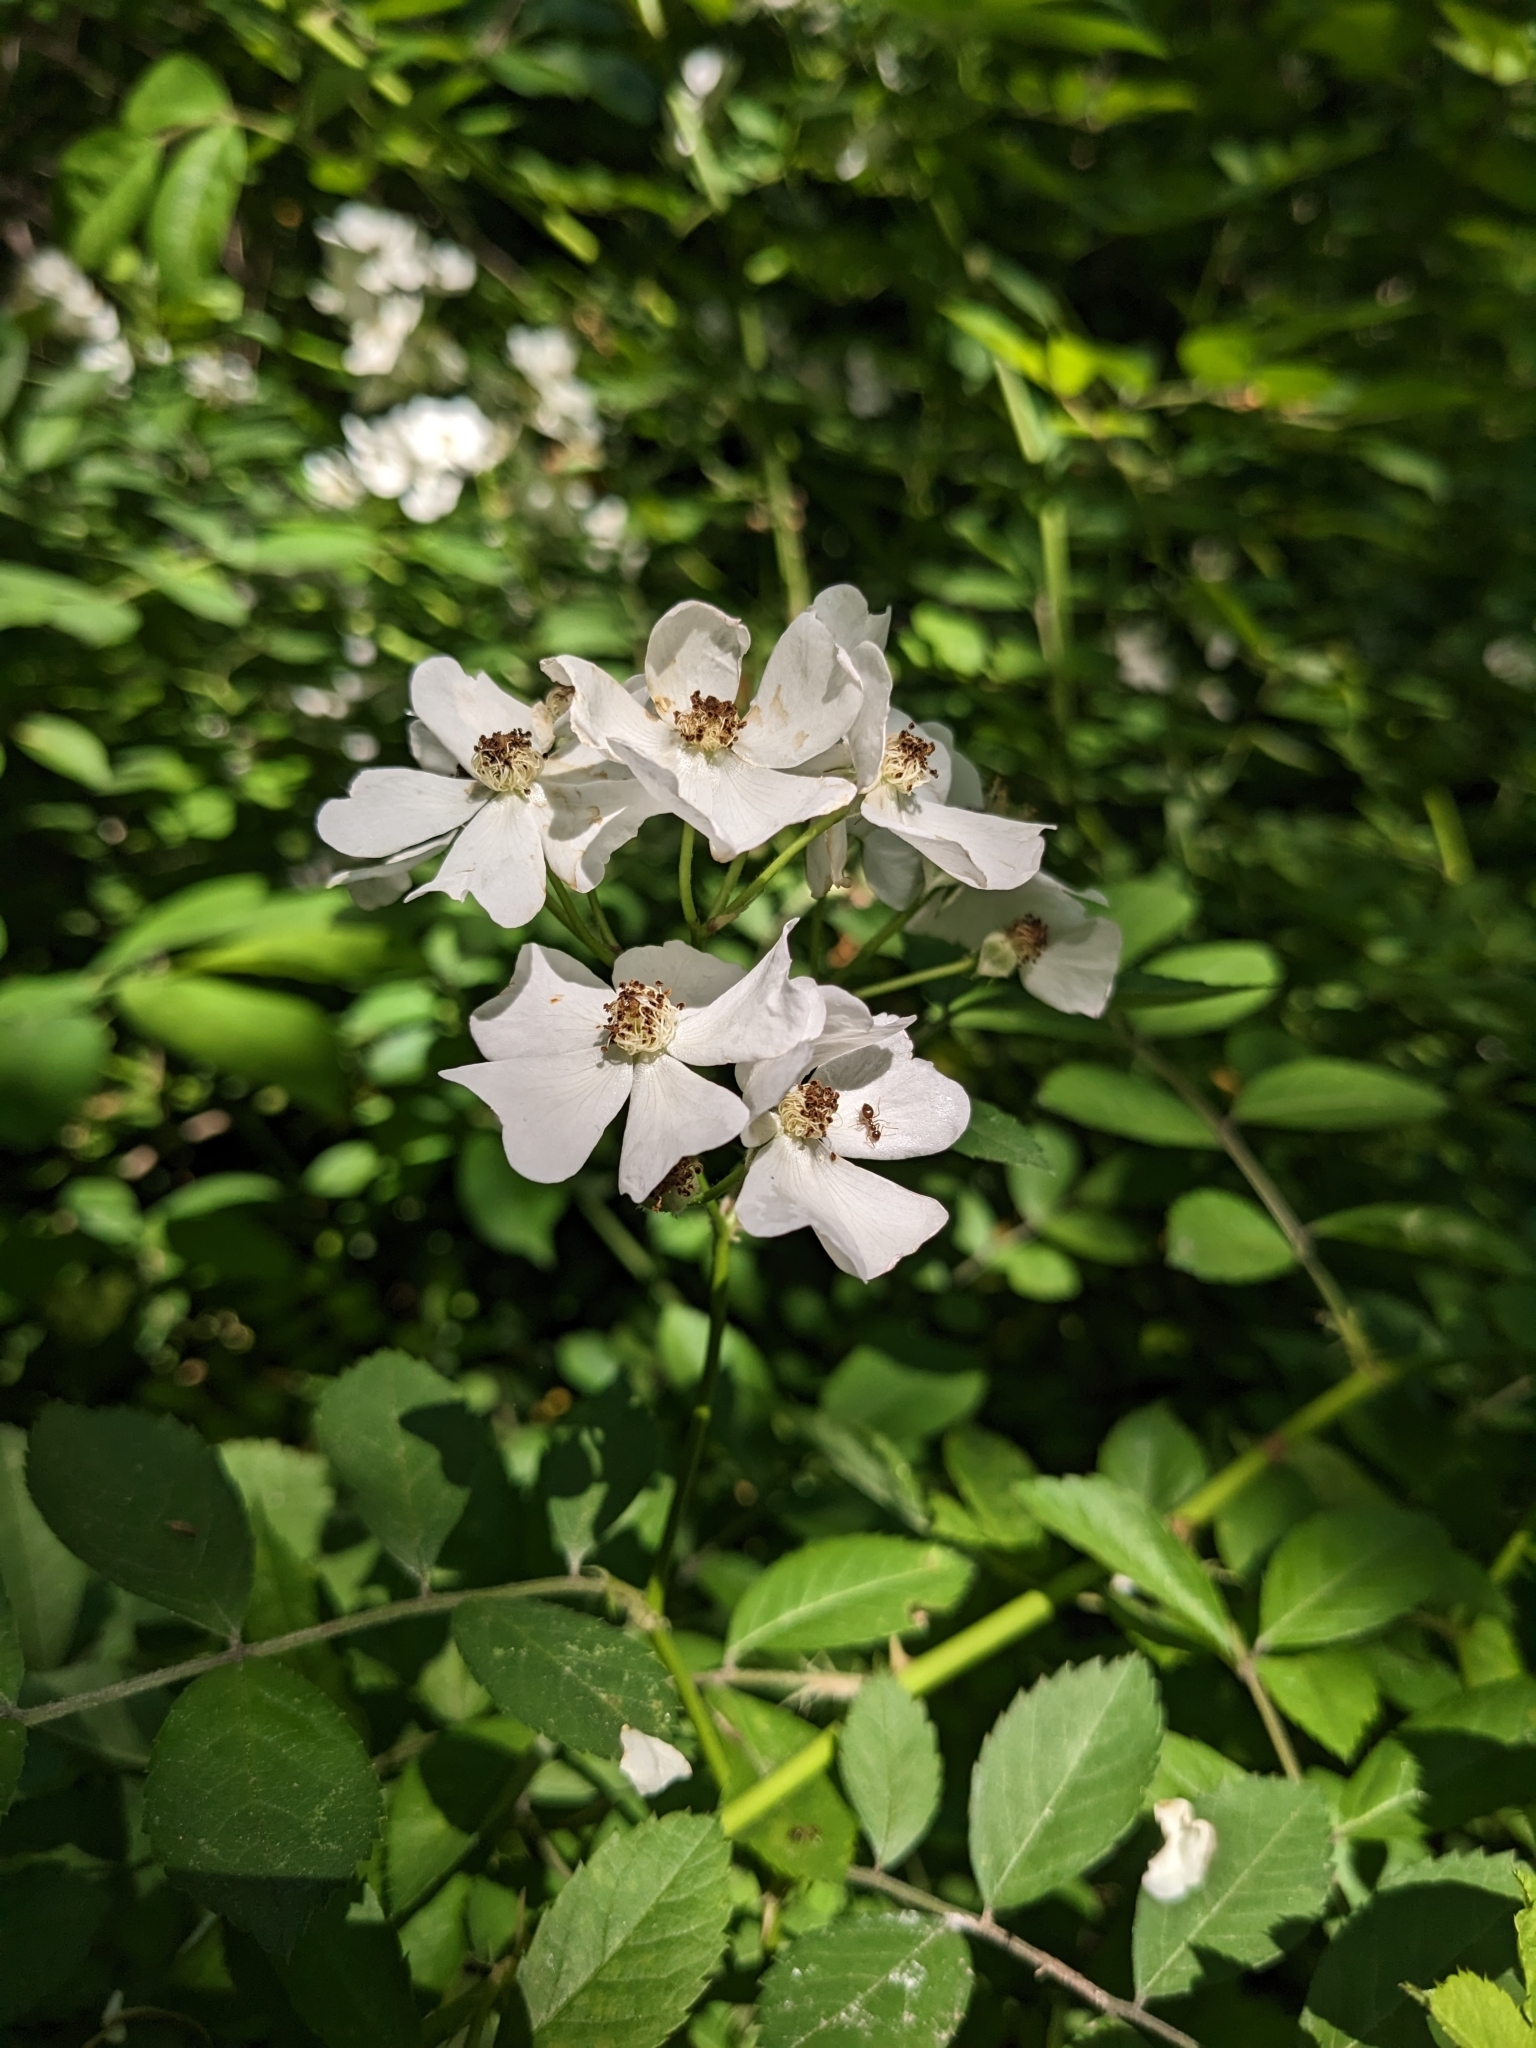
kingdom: Plantae
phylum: Tracheophyta
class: Magnoliopsida
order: Rosales
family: Rosaceae
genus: Rosa
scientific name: Rosa multiflora
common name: Multiflora rose
